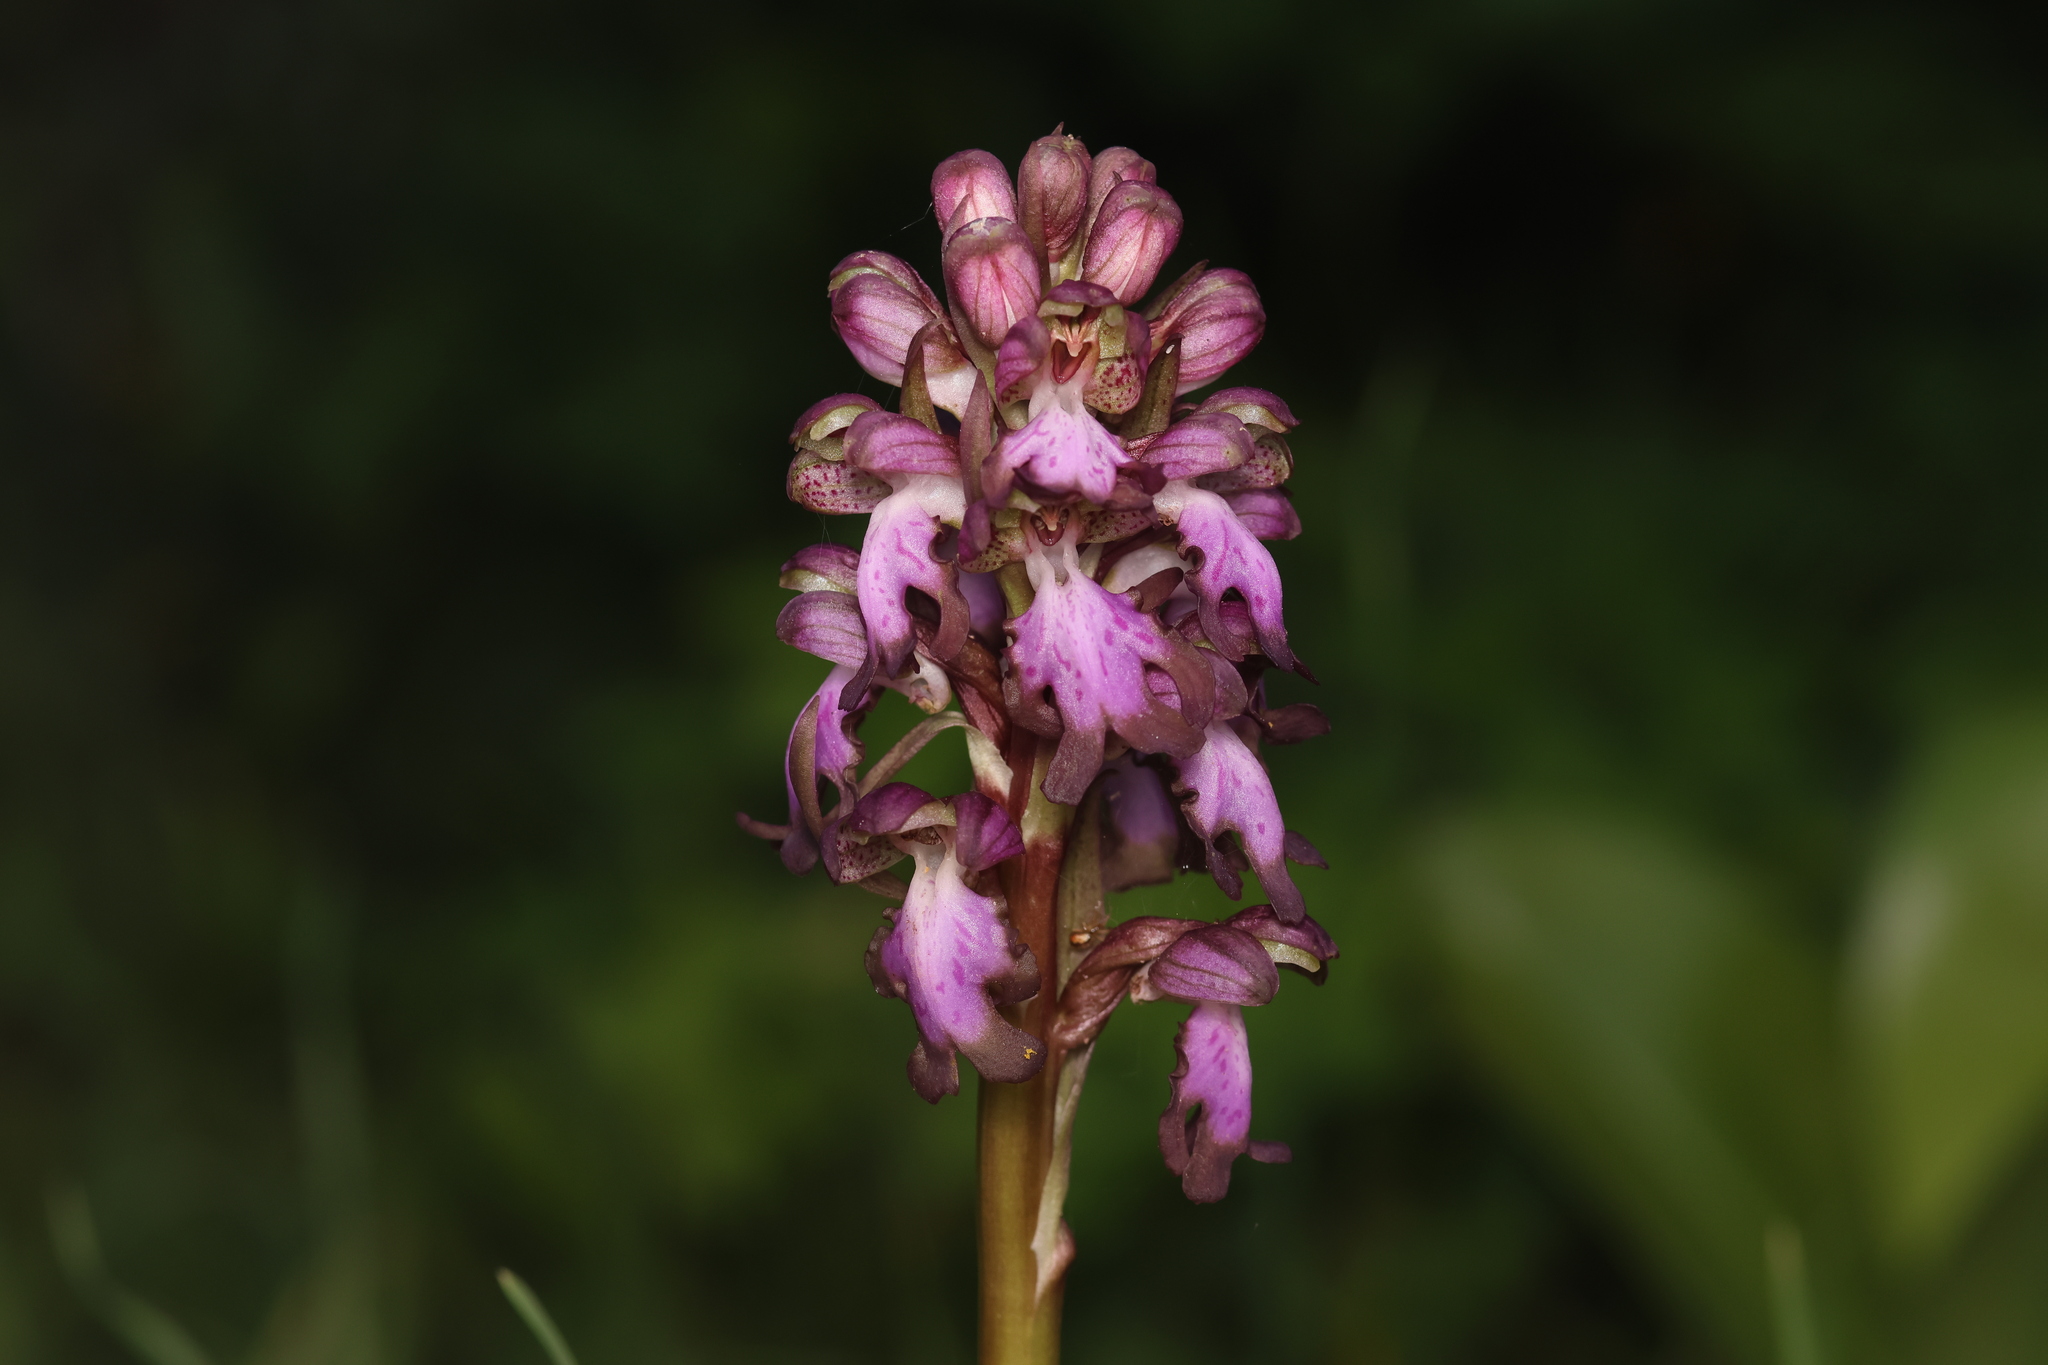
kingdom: Plantae
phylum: Tracheophyta
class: Liliopsida
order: Asparagales
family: Orchidaceae
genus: Himantoglossum
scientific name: Himantoglossum robertianum
